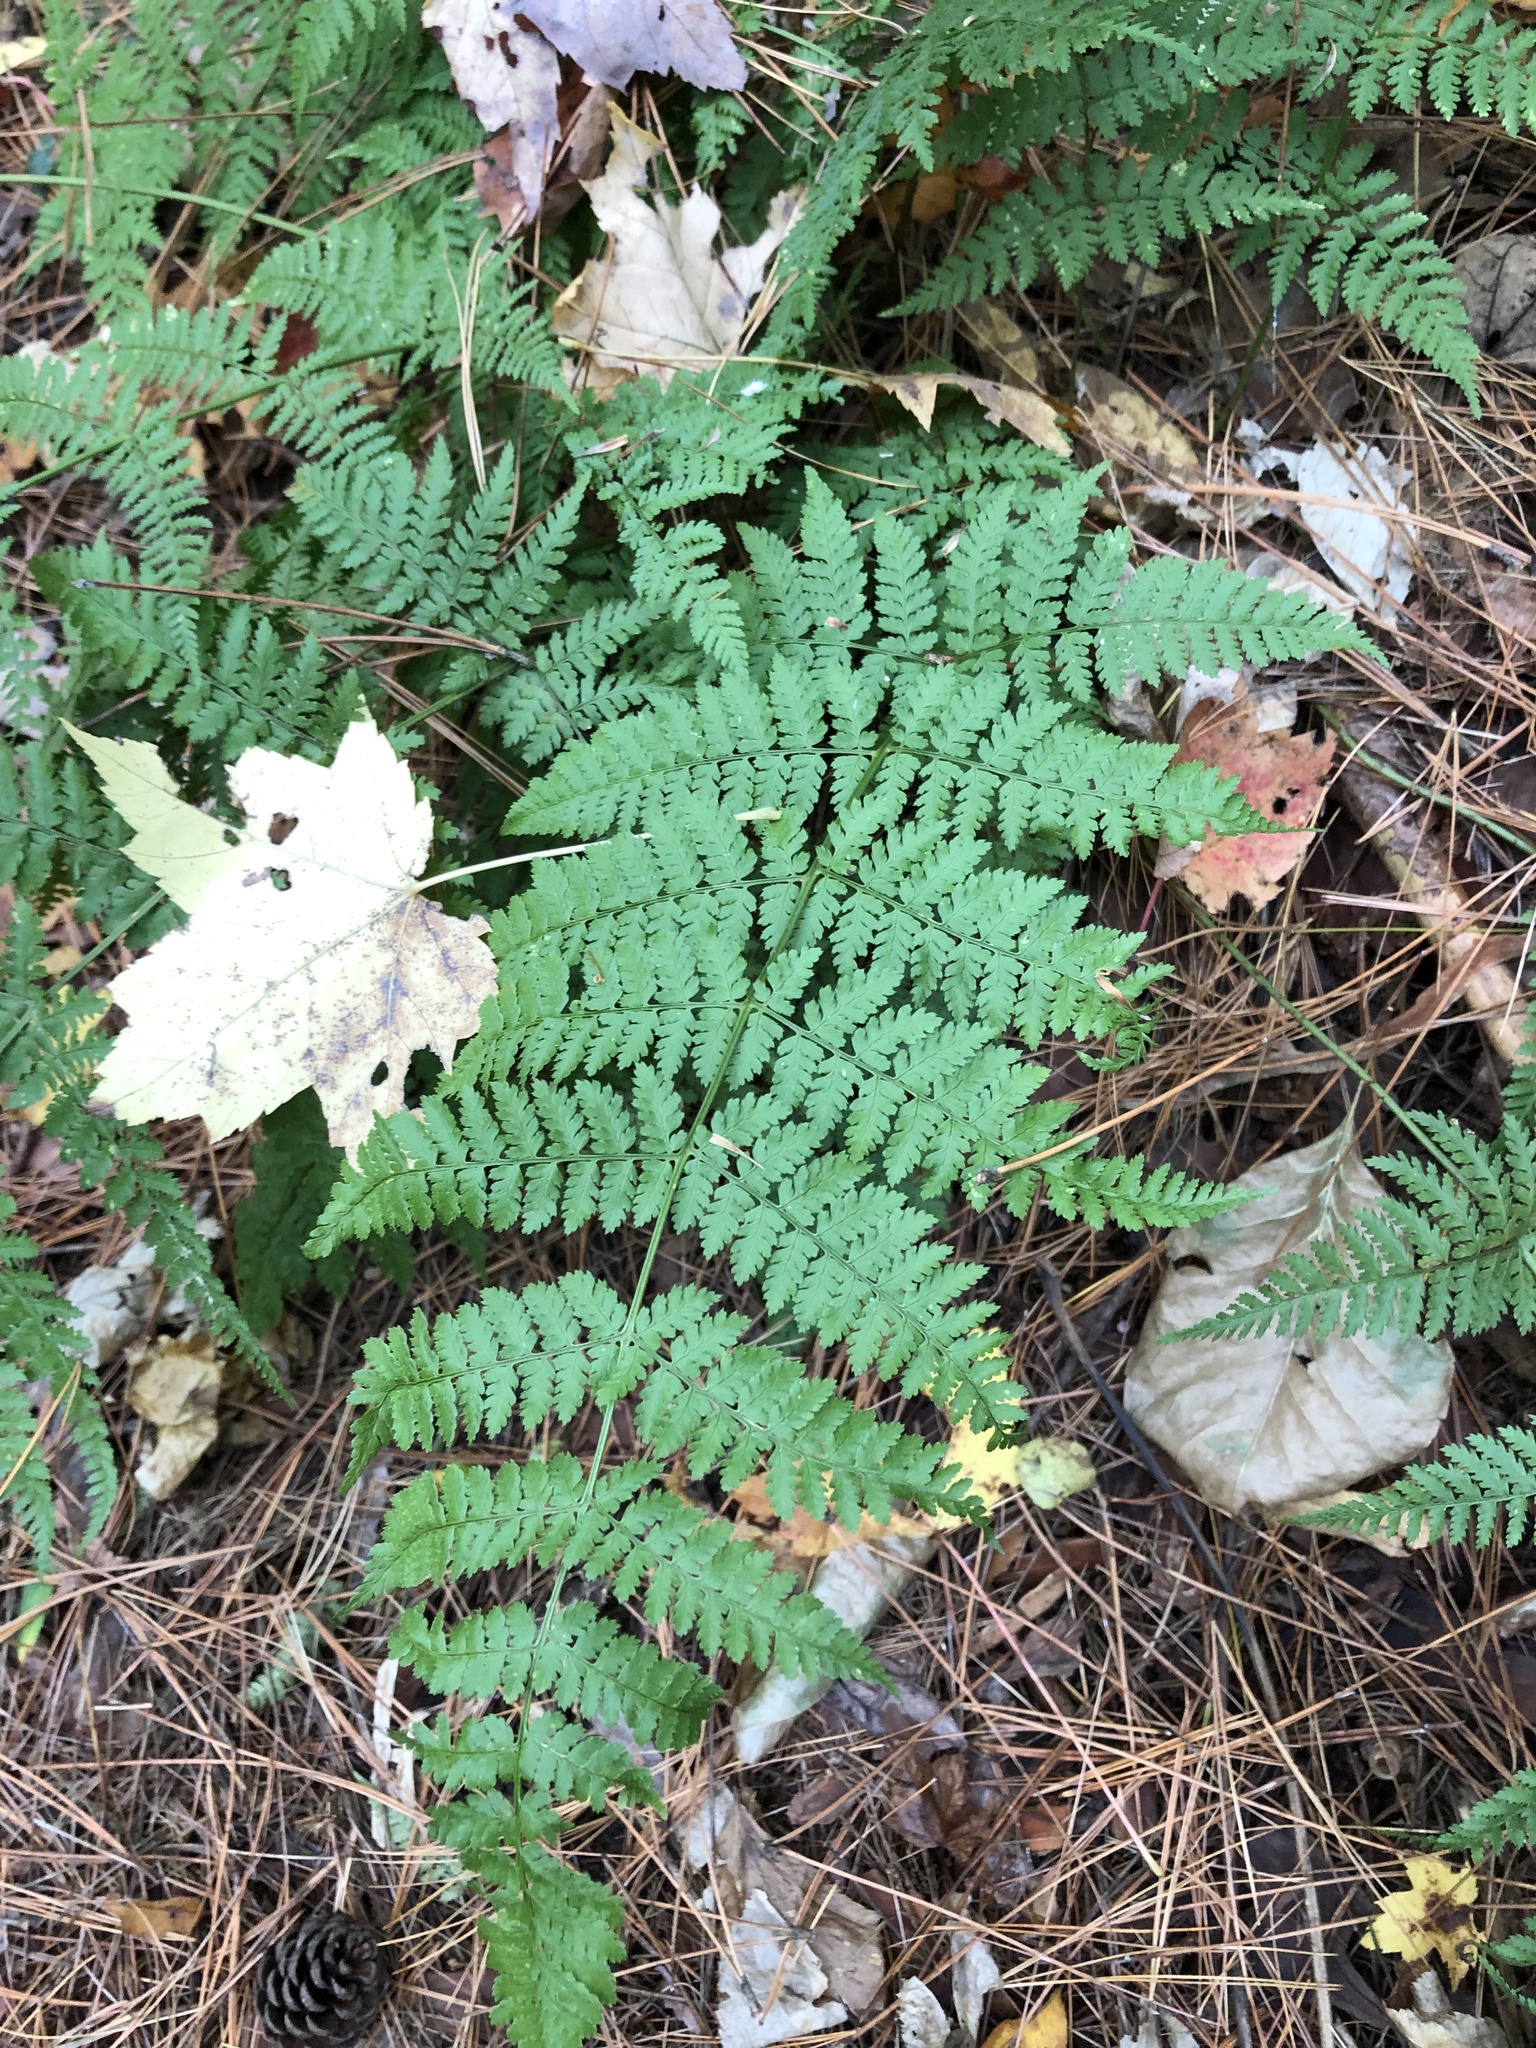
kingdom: Plantae
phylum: Tracheophyta
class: Polypodiopsida
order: Polypodiales
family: Dryopteridaceae
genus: Dryopteris
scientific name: Dryopteris intermedia
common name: Evergreen wood fern
